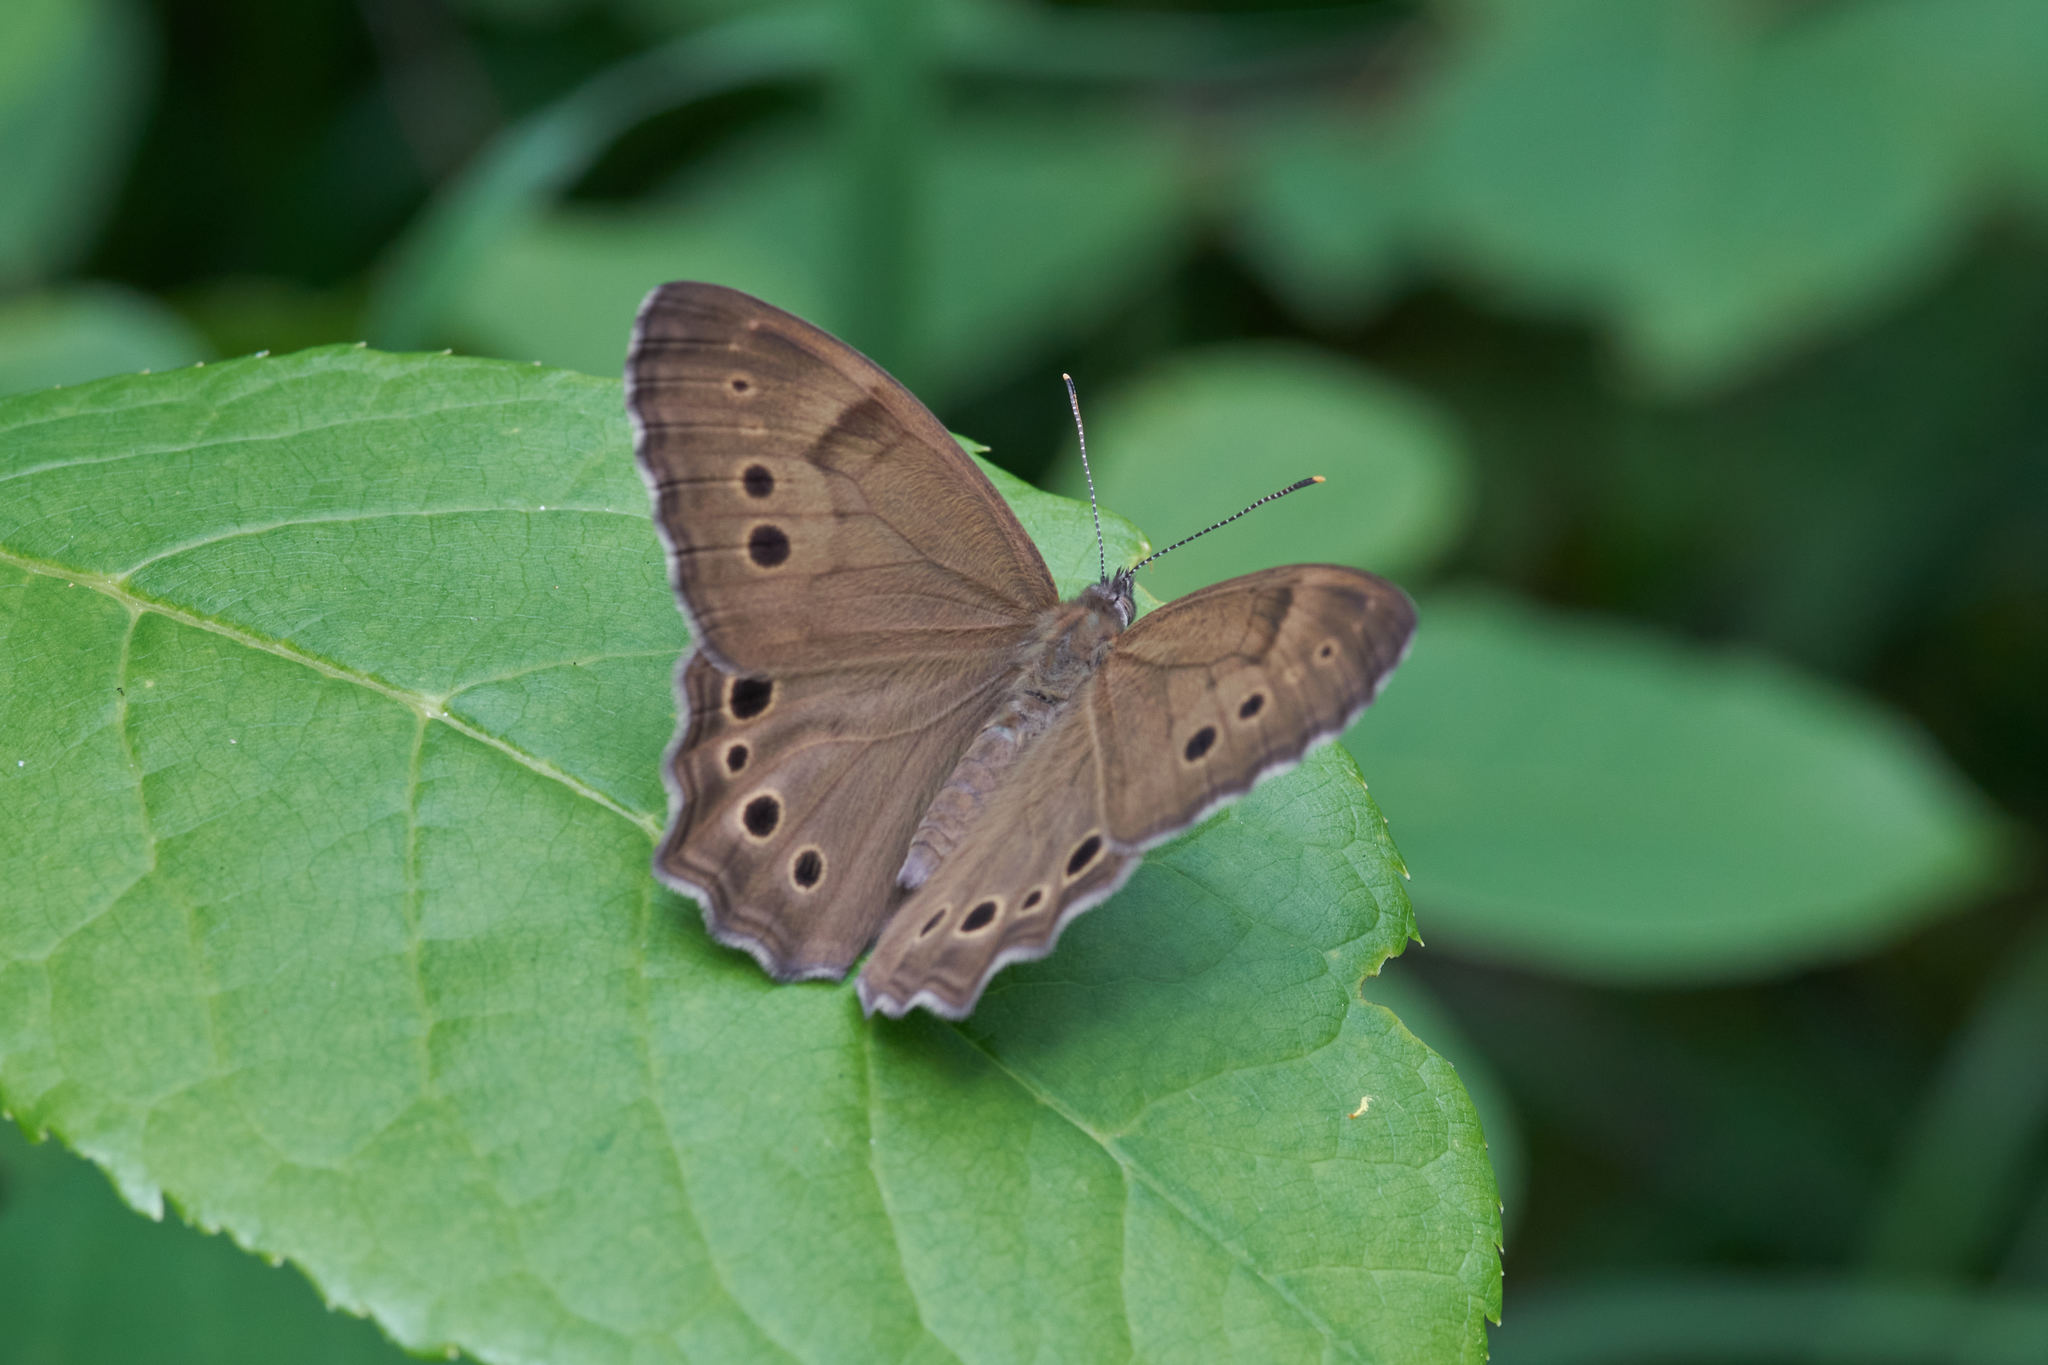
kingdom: Animalia
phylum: Arthropoda
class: Insecta
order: Lepidoptera
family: Nymphalidae
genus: Lethe
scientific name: Lethe anthedon
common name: Northern pearly-eye
